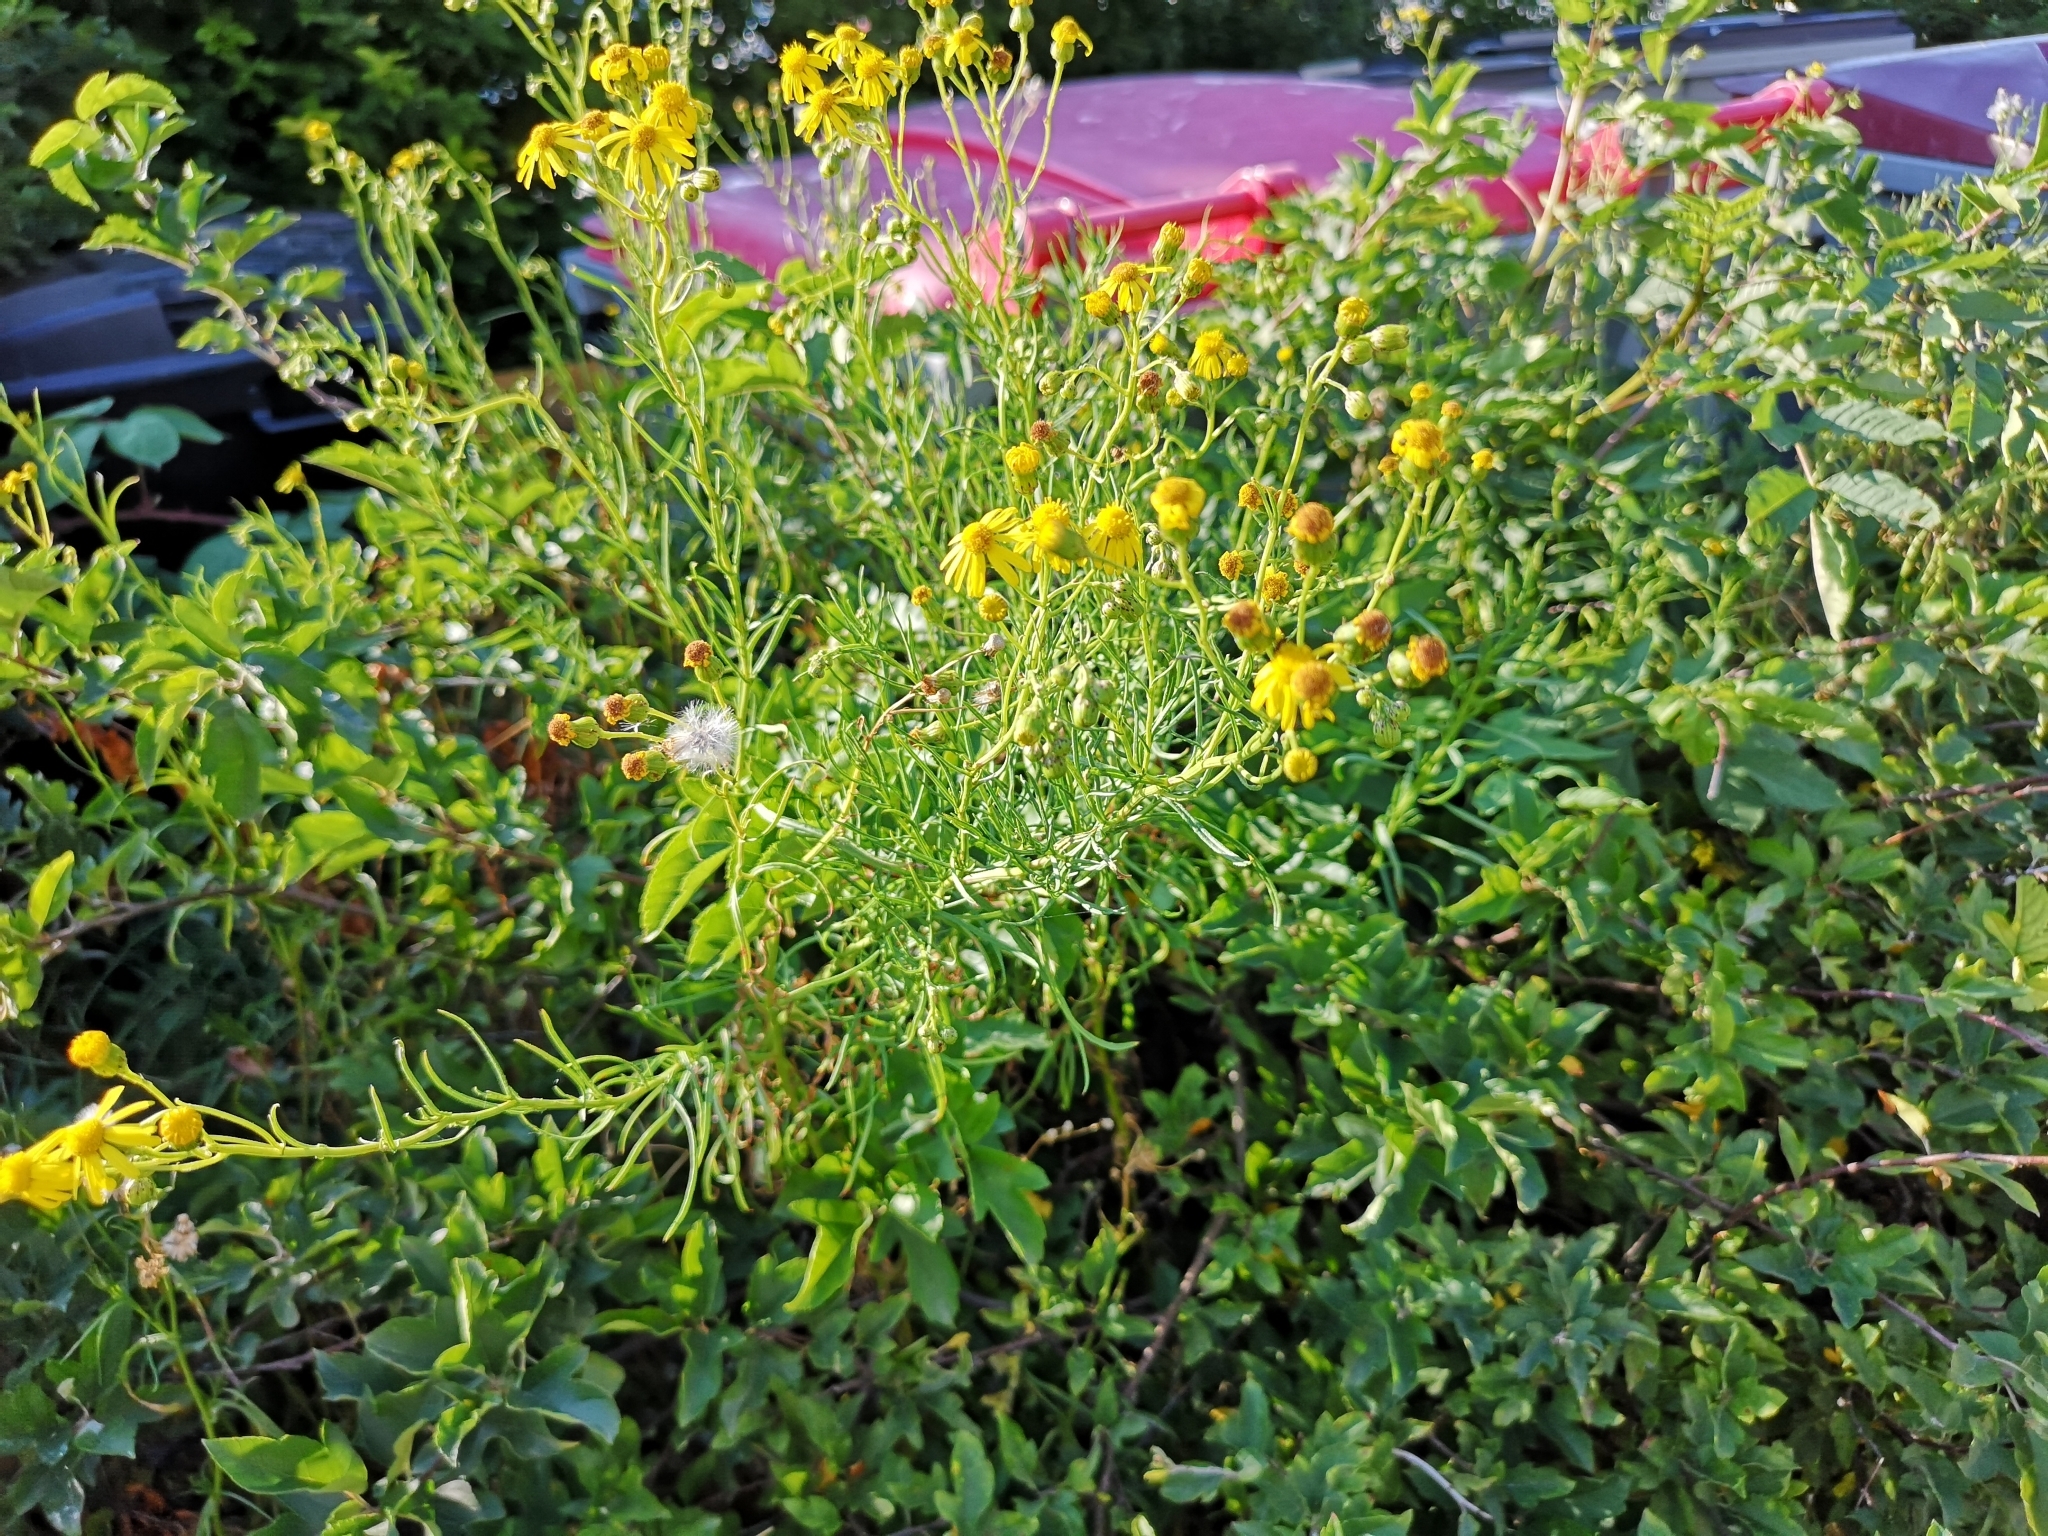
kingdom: Plantae
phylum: Tracheophyta
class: Magnoliopsida
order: Asterales
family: Asteraceae
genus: Senecio
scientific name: Senecio inaequidens
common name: Narrow-leaved ragwort
